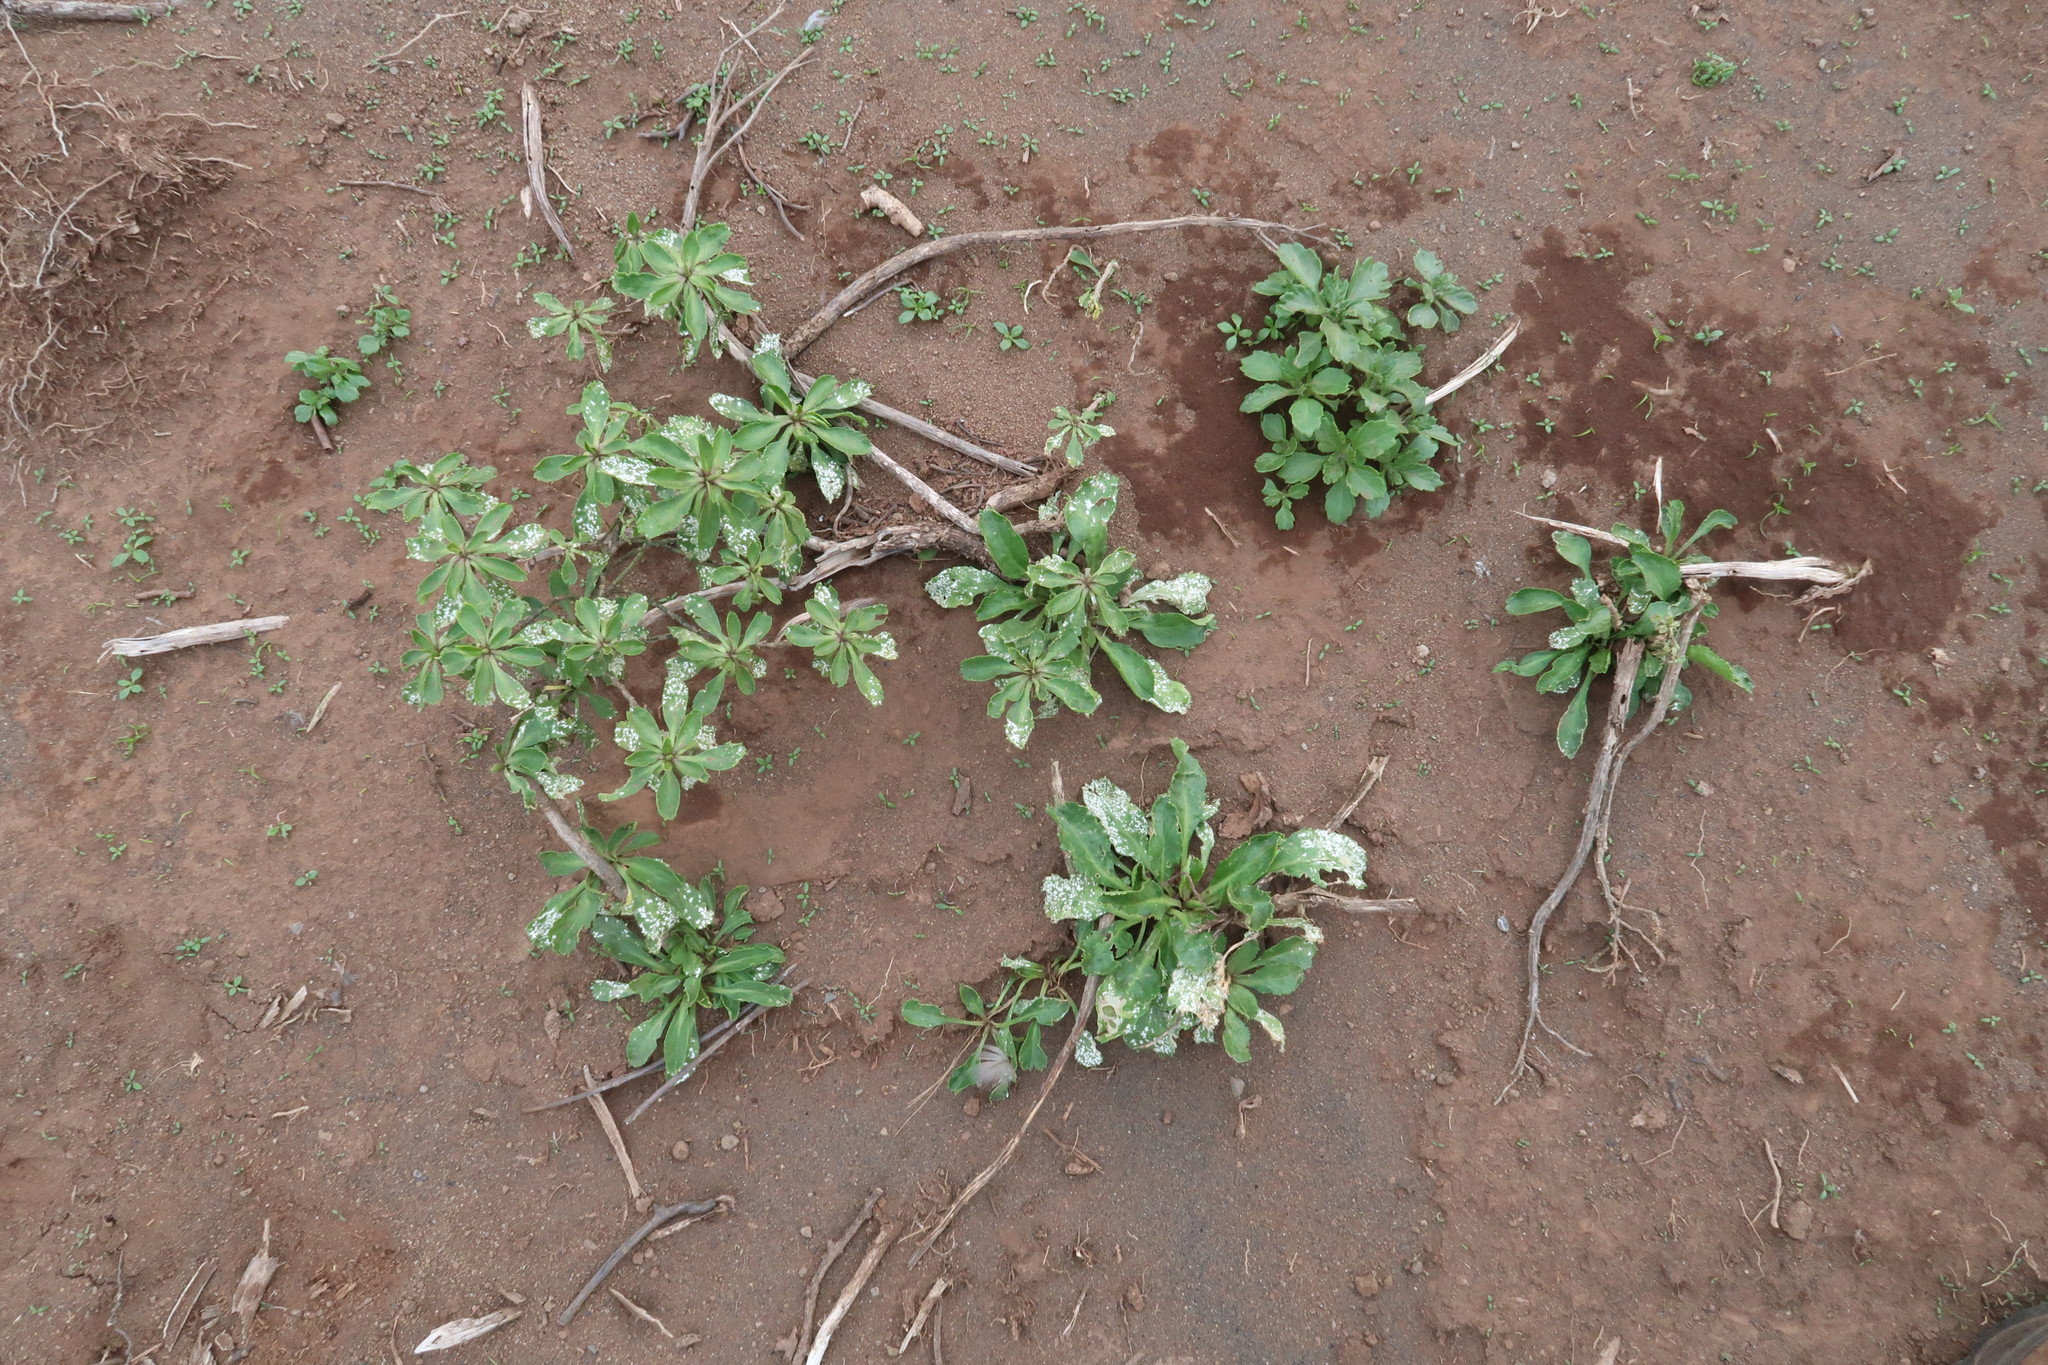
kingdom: Plantae
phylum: Tracheophyta
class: Magnoliopsida
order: Brassicales
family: Brassicaceae
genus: Lepidium
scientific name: Lepidium oblitum
